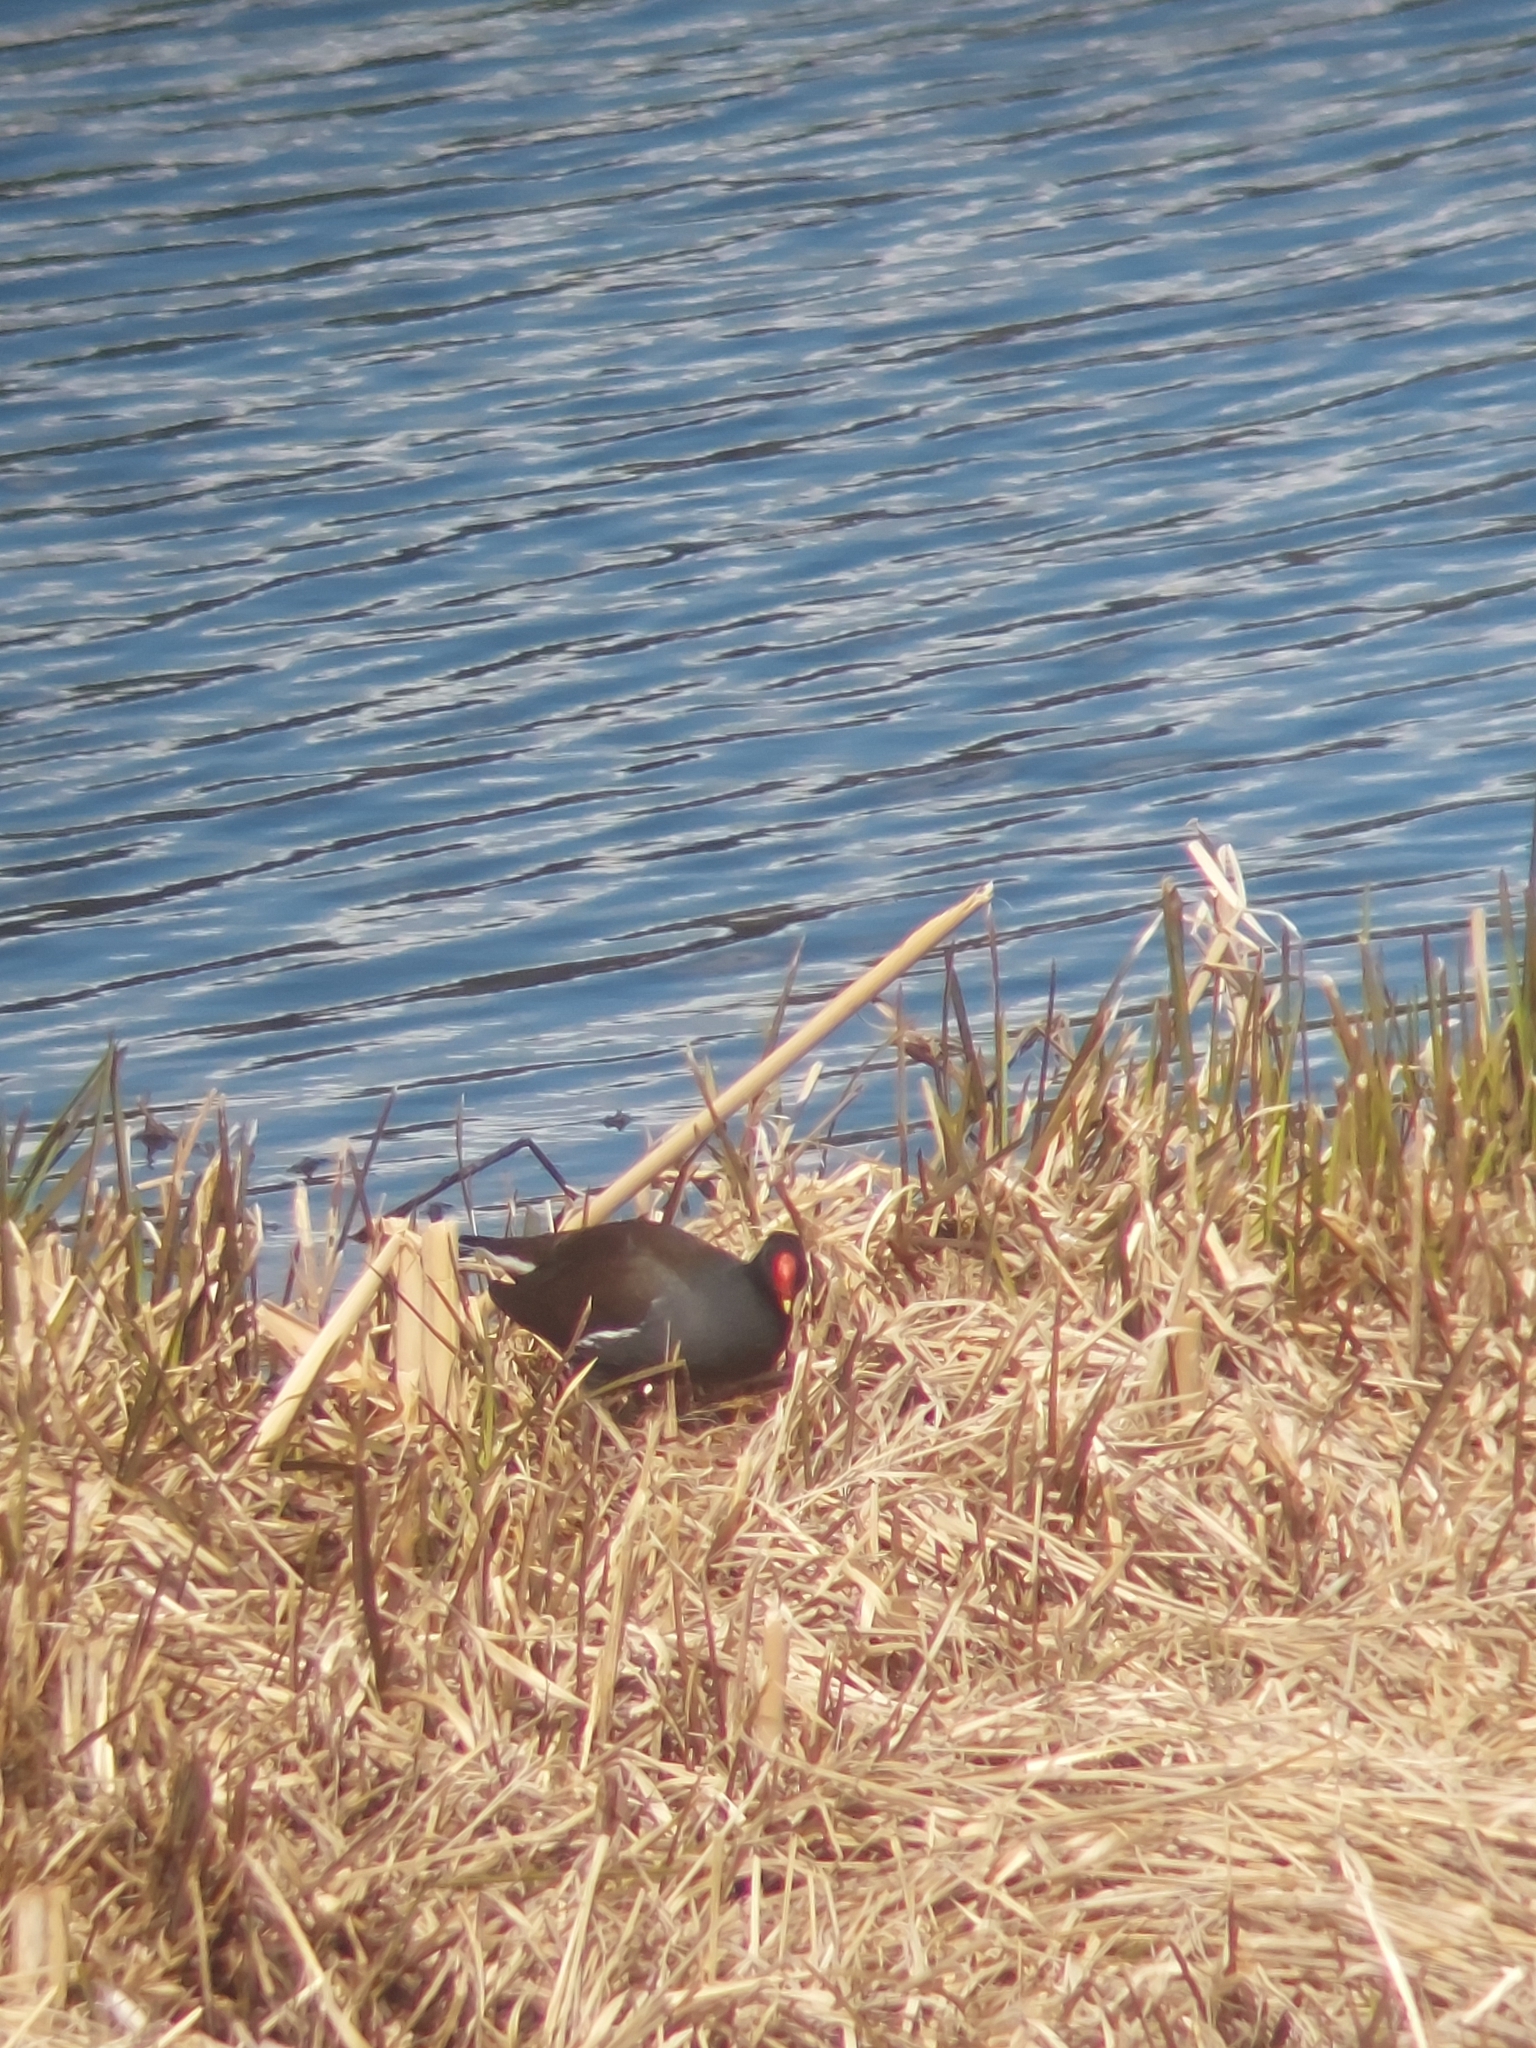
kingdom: Animalia
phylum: Chordata
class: Aves
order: Gruiformes
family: Rallidae
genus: Gallinula
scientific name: Gallinula chloropus
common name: Common moorhen
